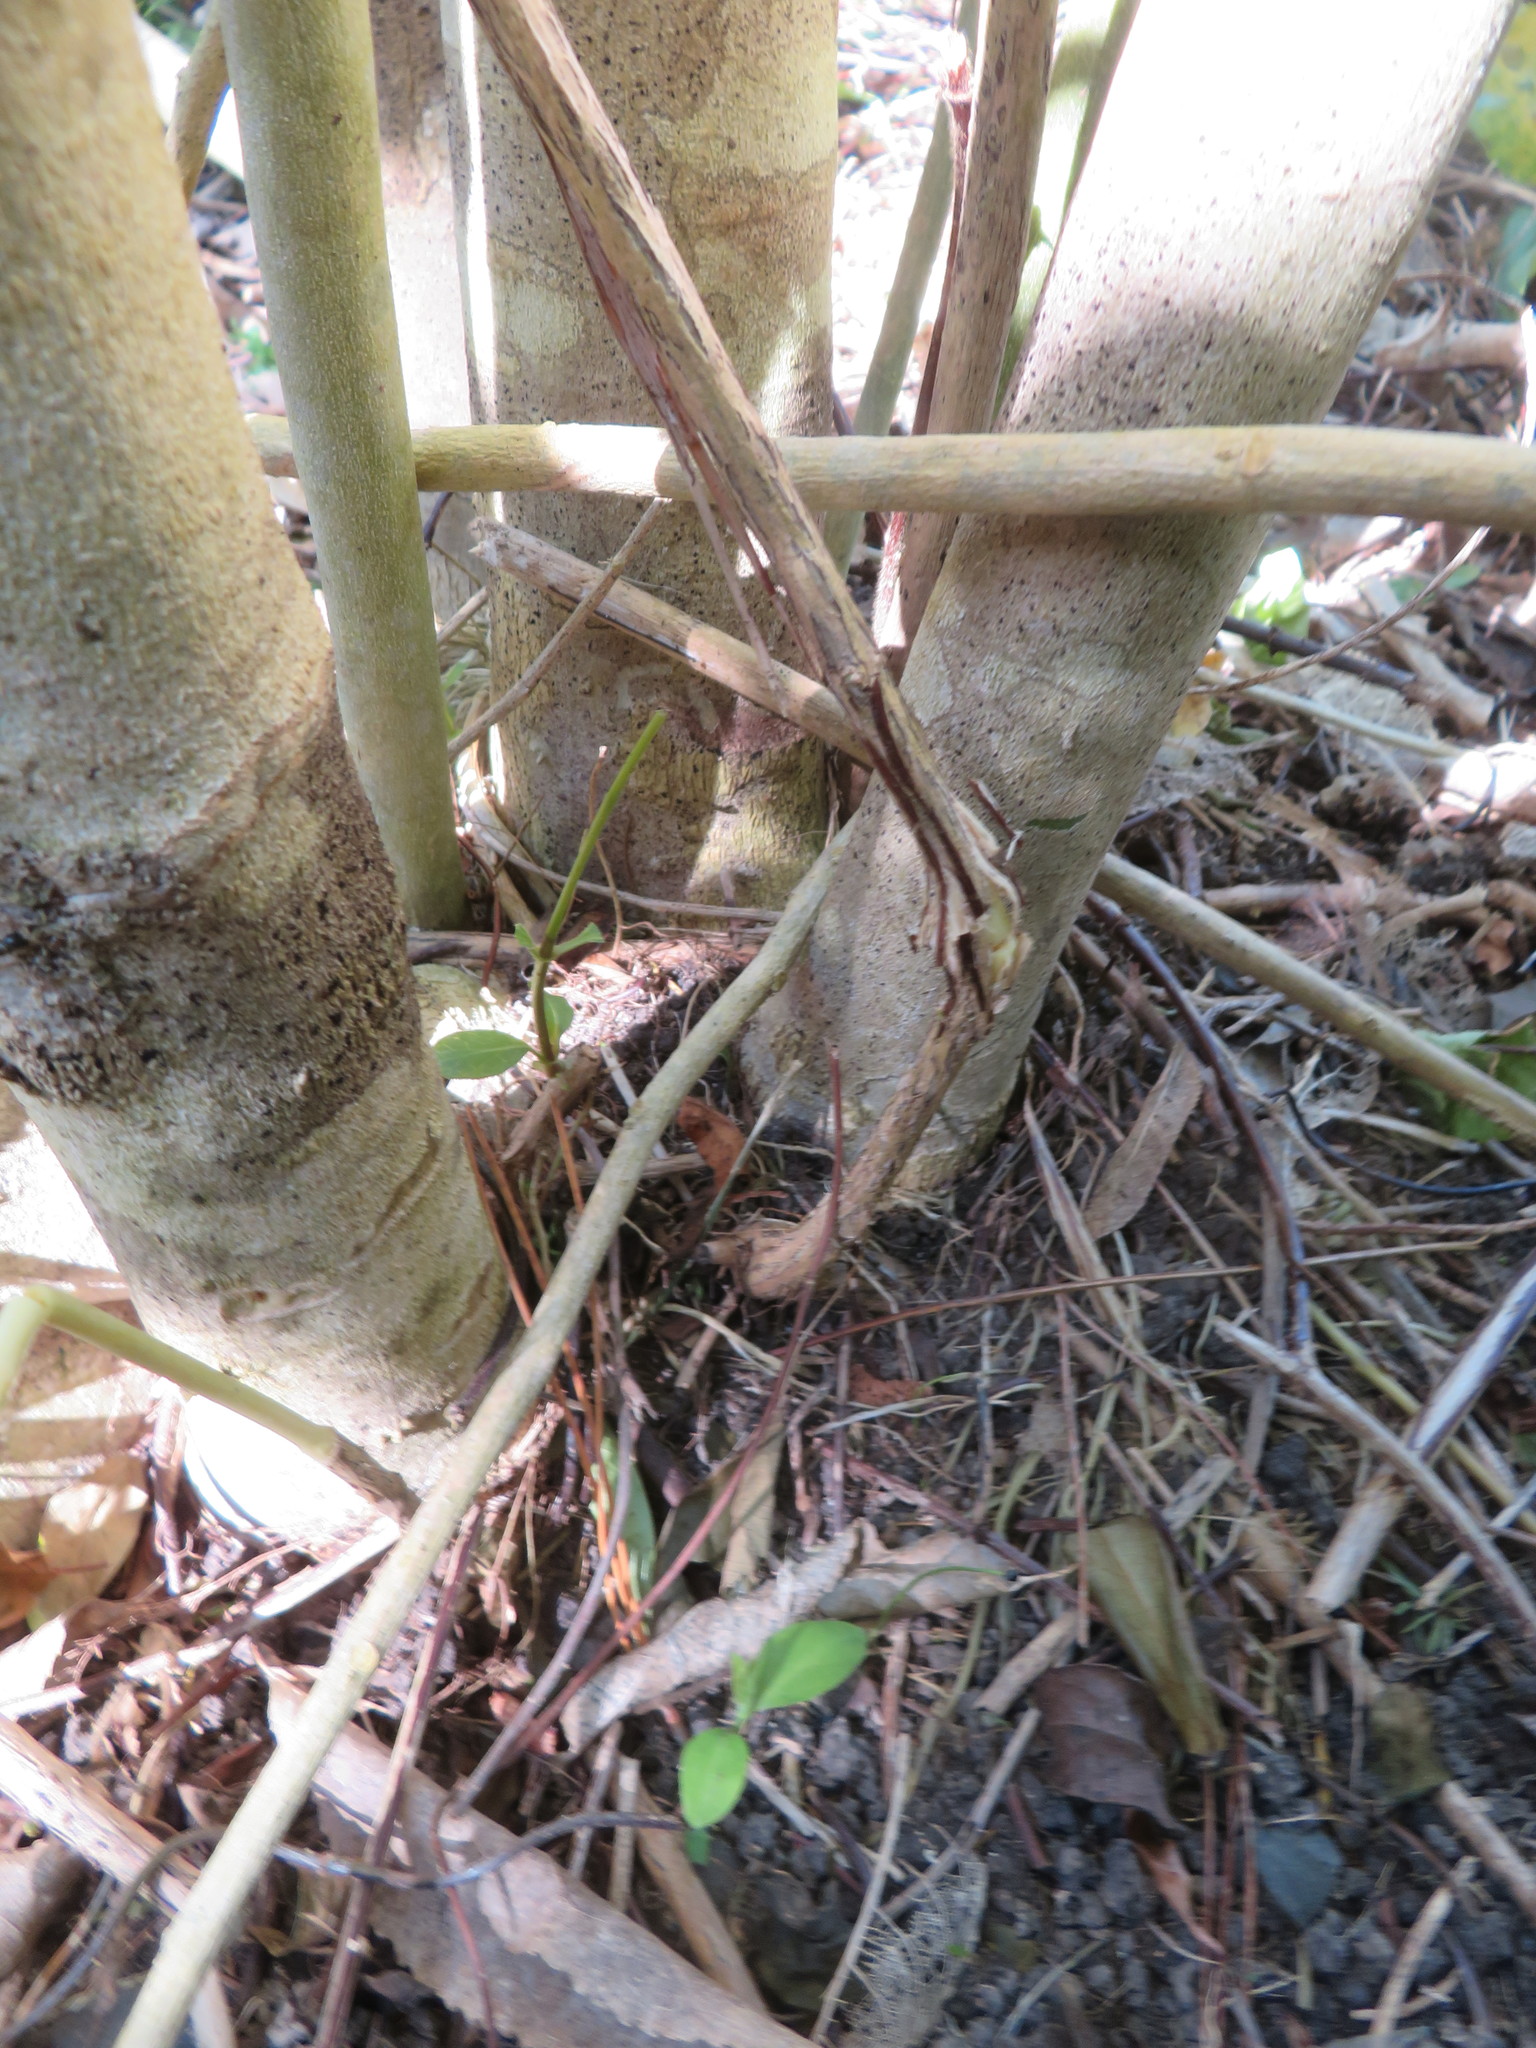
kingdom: Plantae
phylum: Tracheophyta
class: Magnoliopsida
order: Malpighiales
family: Violaceae
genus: Melicytus
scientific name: Melicytus ramiflorus
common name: Mahoe
